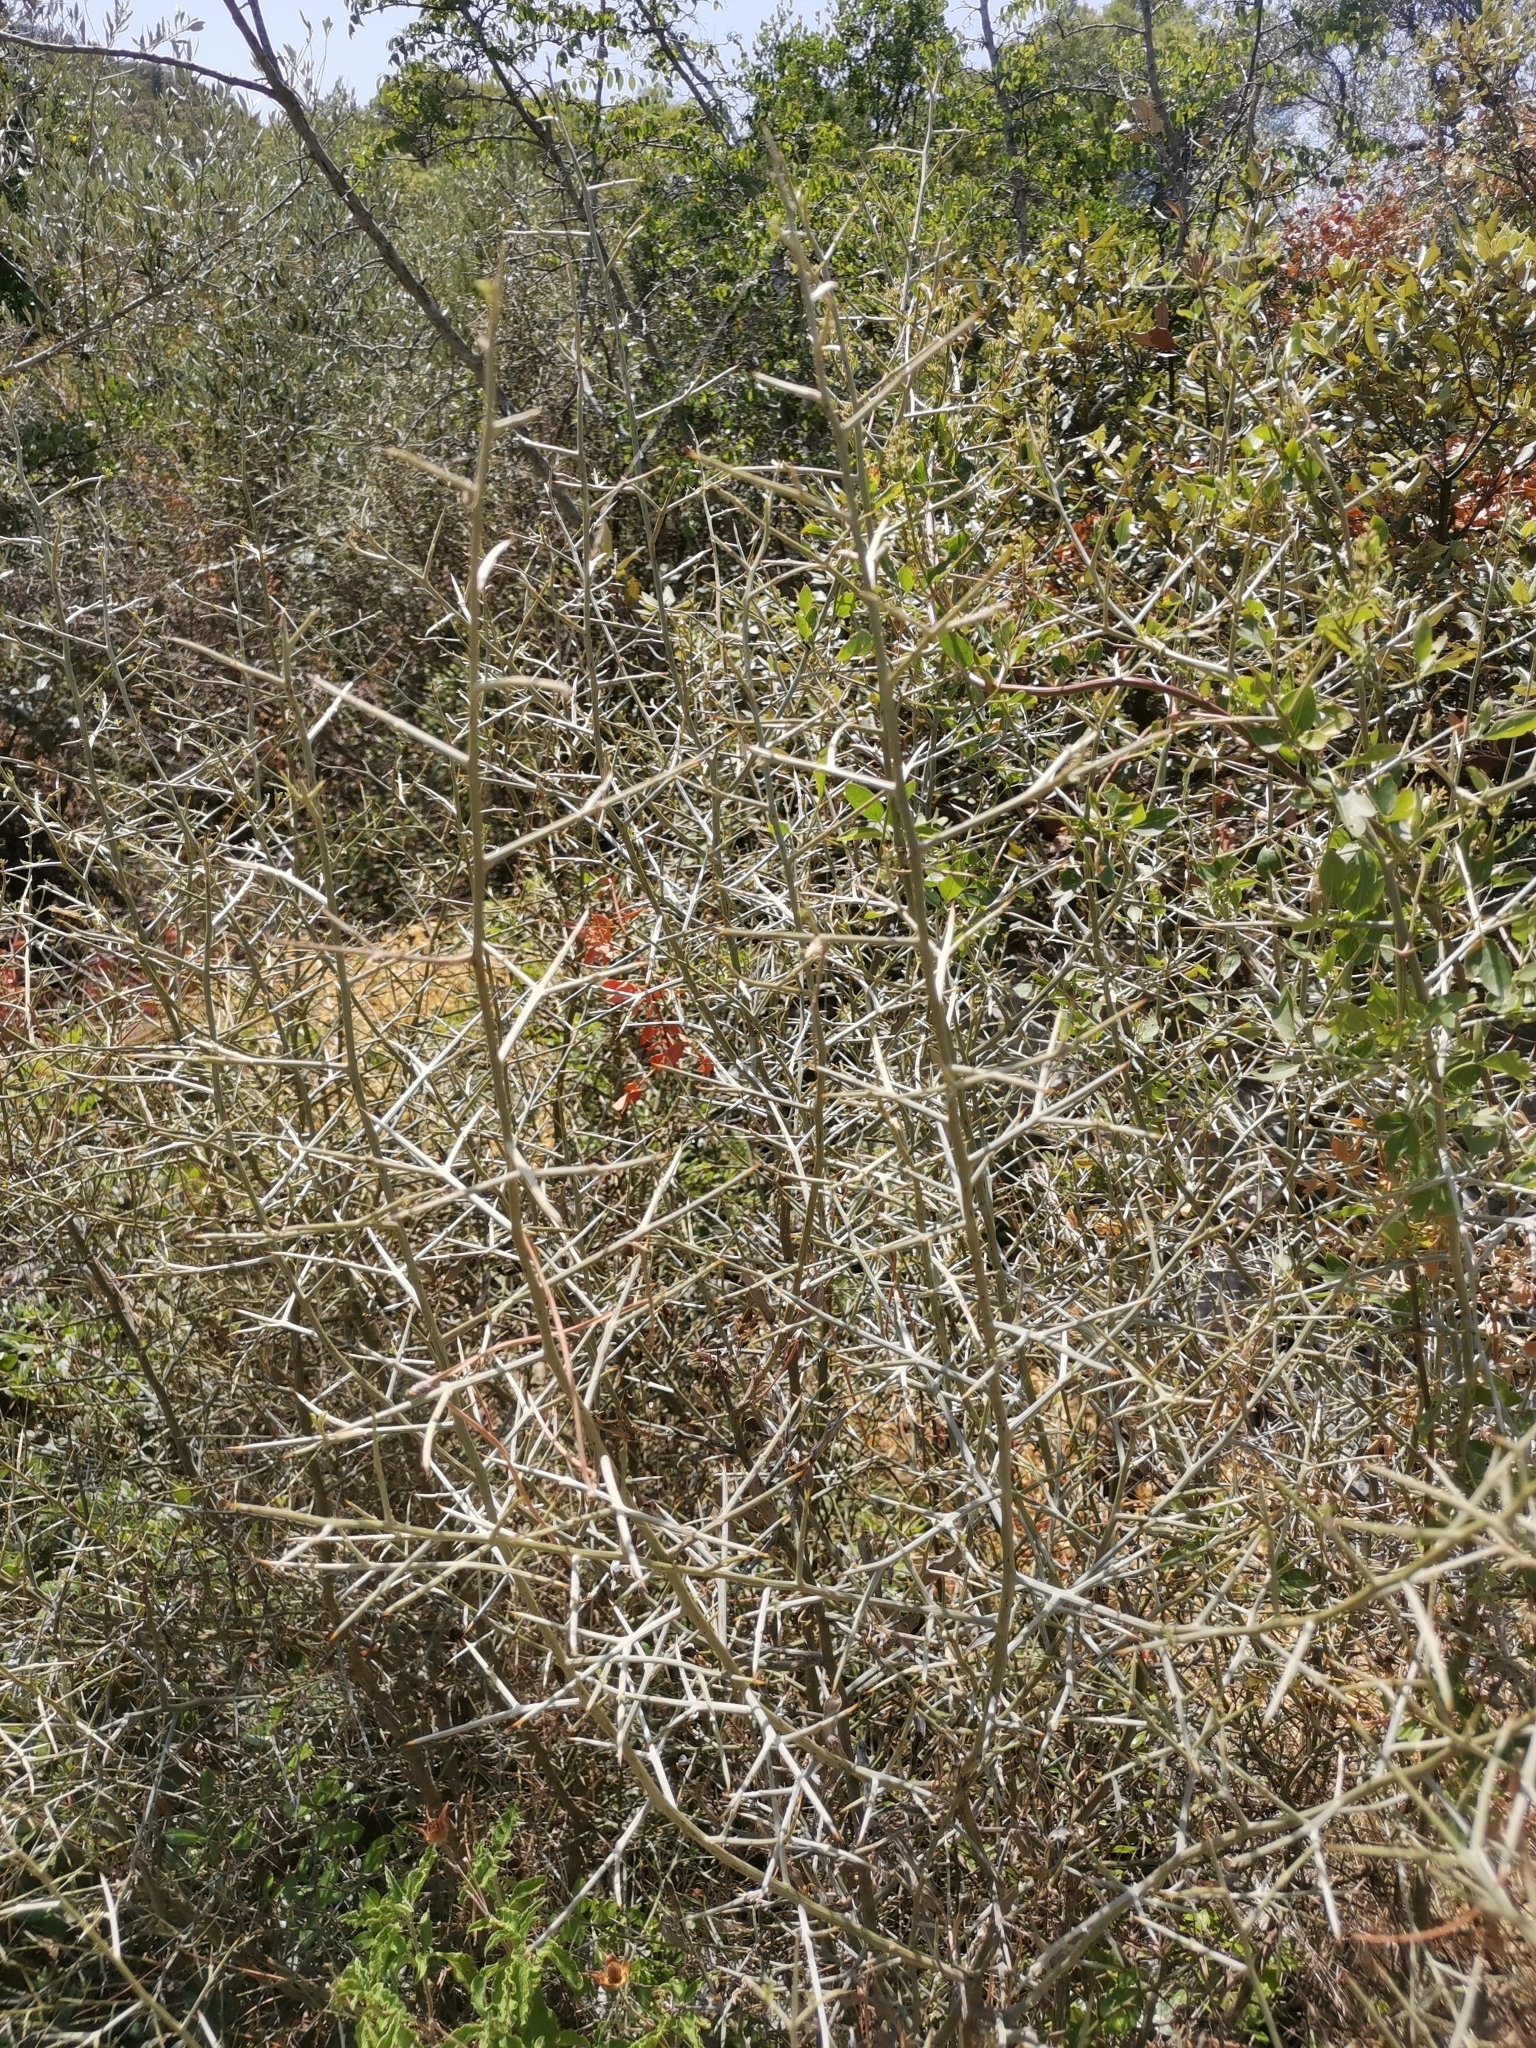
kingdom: Plantae
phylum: Tracheophyta
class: Magnoliopsida
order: Fabales
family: Fabaceae
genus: Calicotome
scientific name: Calicotome infesta
